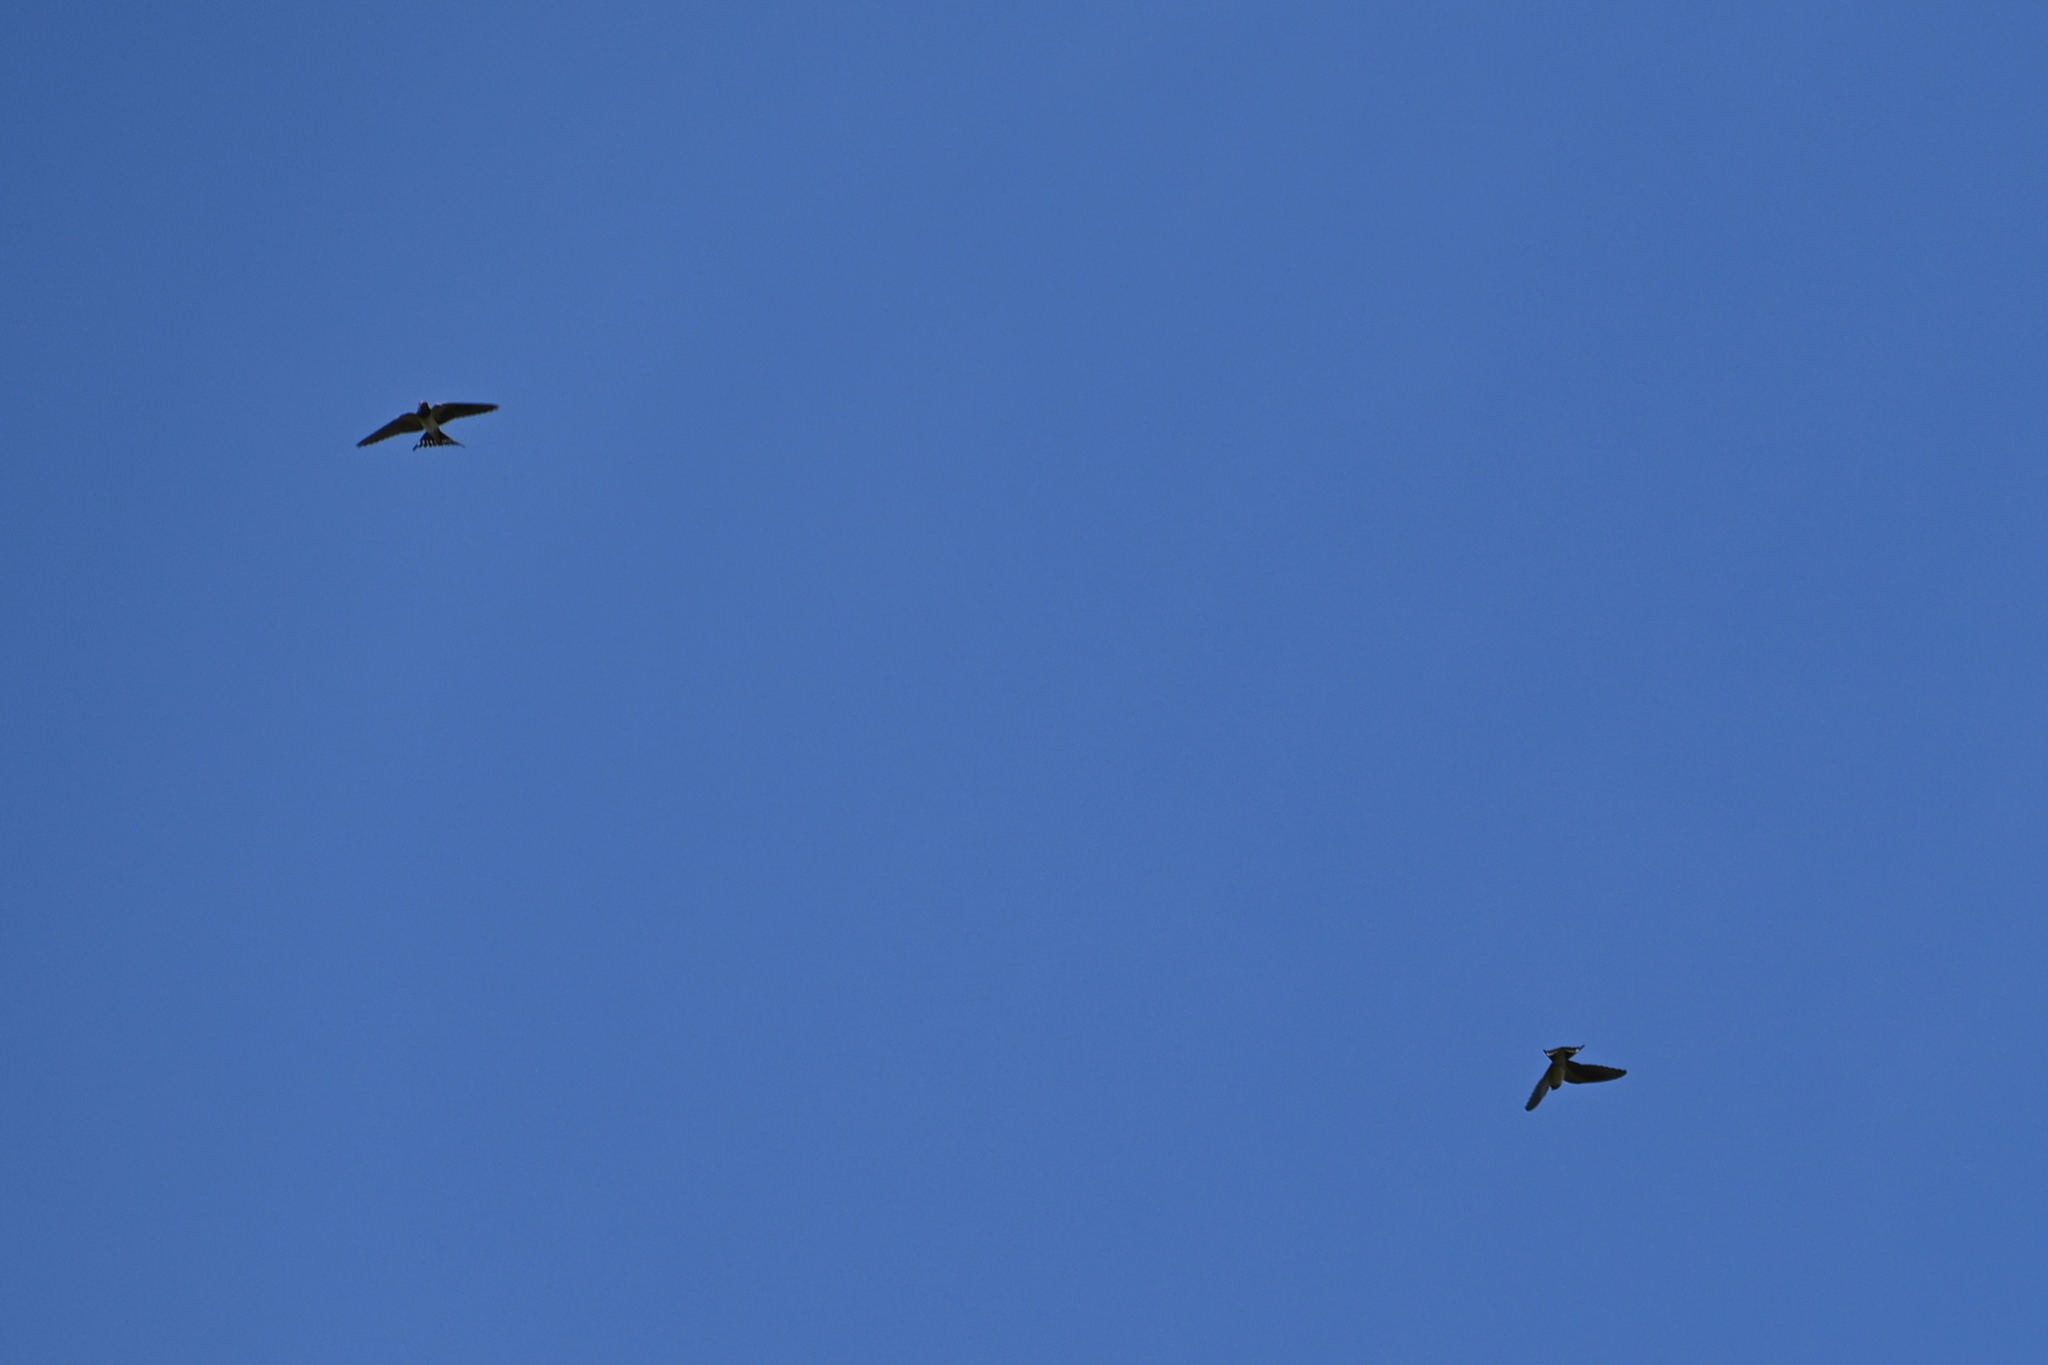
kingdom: Animalia
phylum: Chordata
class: Aves
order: Passeriformes
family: Hirundinidae
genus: Hirundo
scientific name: Hirundo rustica
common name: Barn swallow
